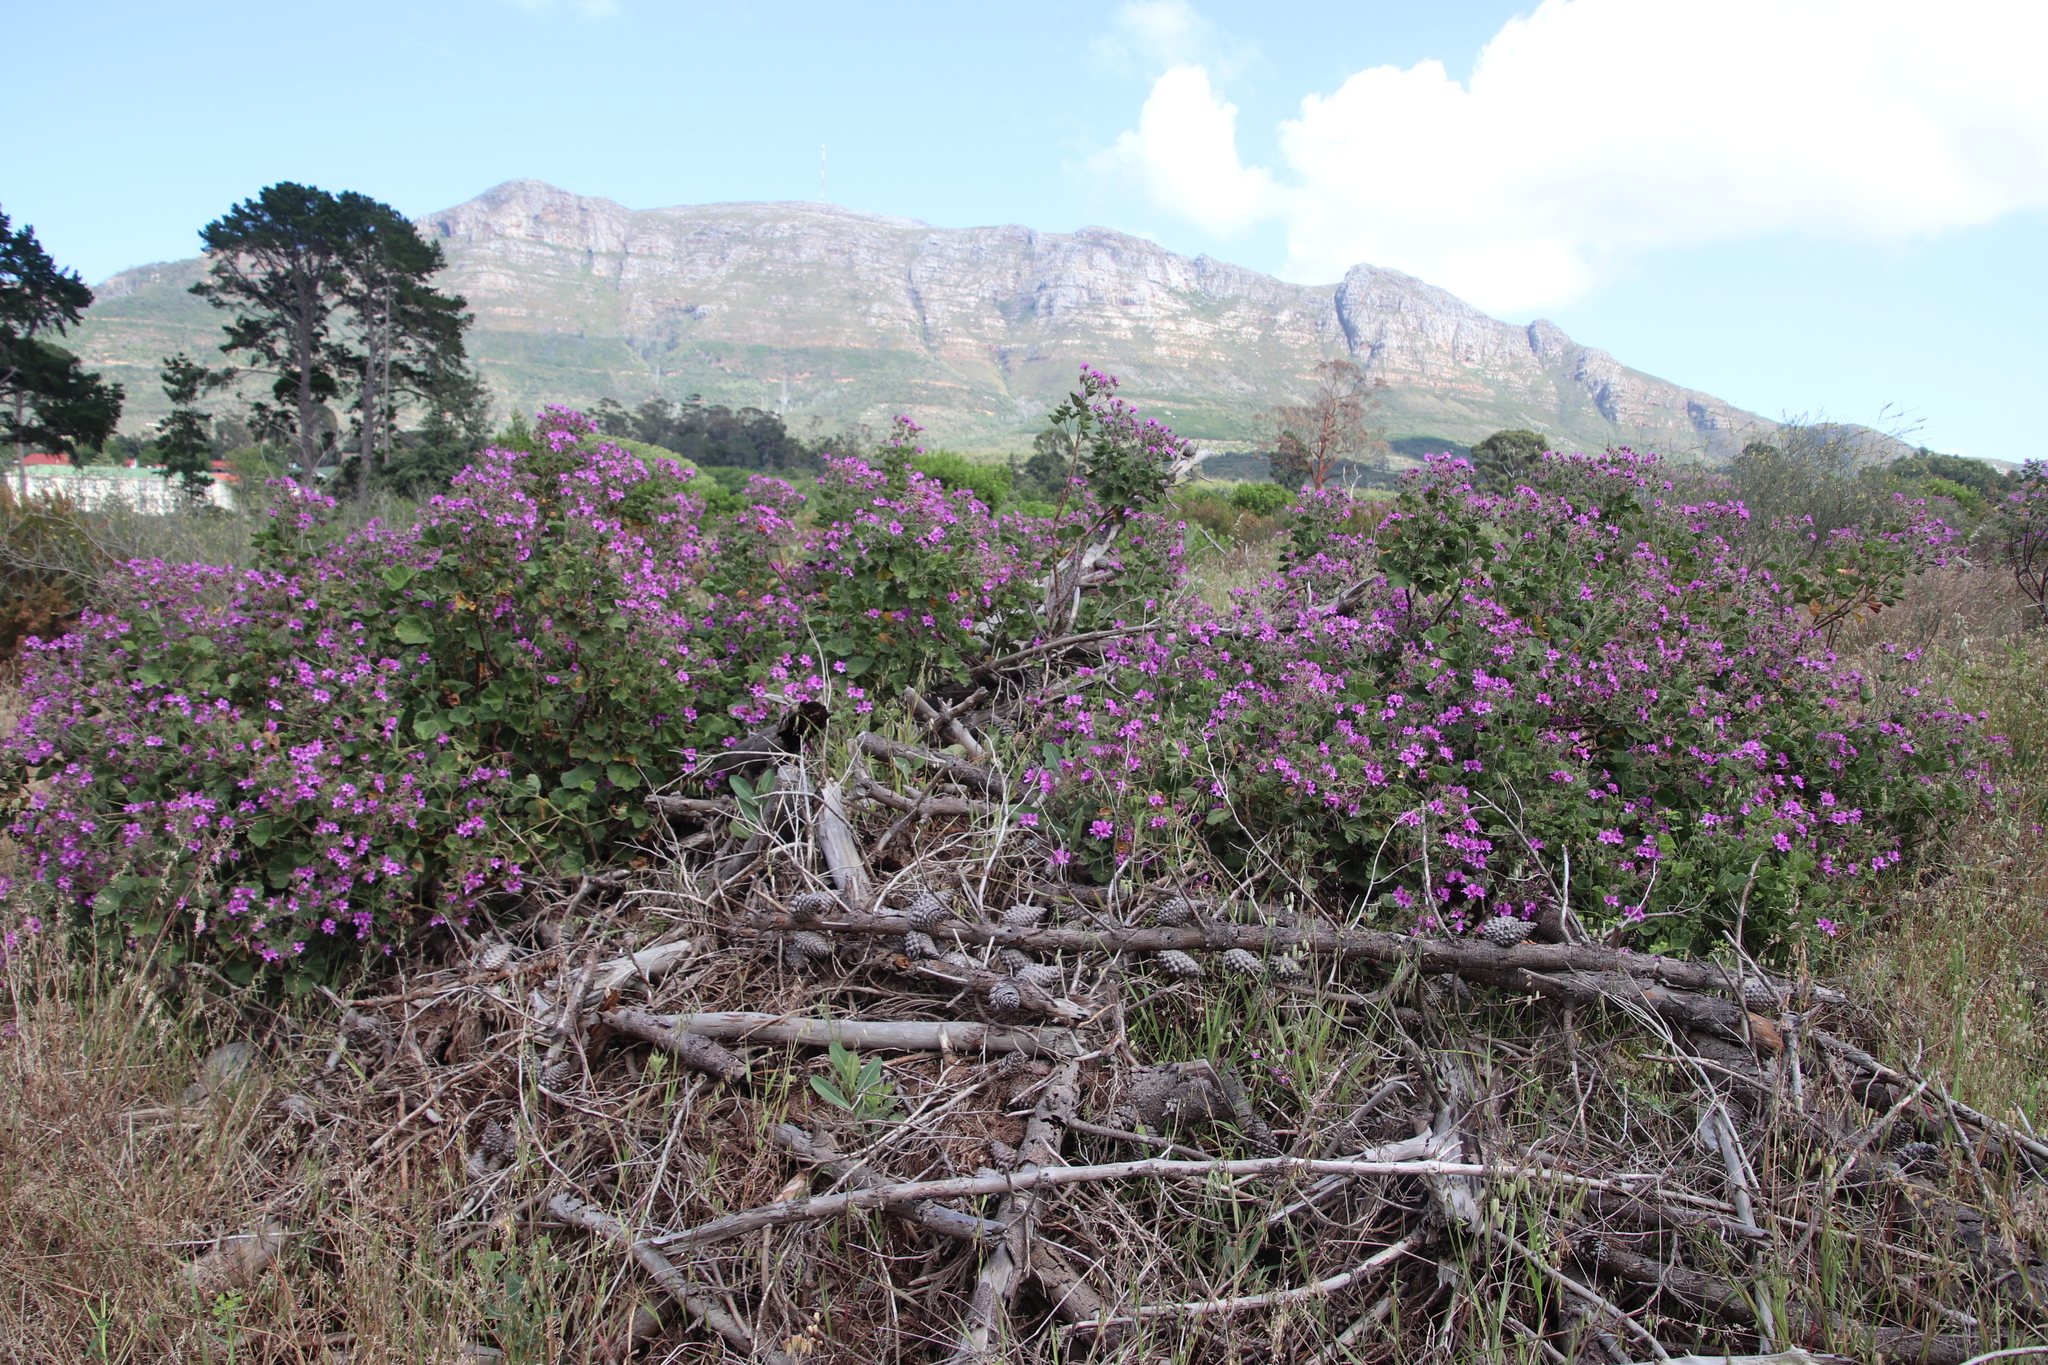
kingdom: Plantae
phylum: Tracheophyta
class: Magnoliopsida
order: Geraniales
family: Geraniaceae
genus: Pelargonium
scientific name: Pelargonium cucullatum
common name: Tree pelargonium
